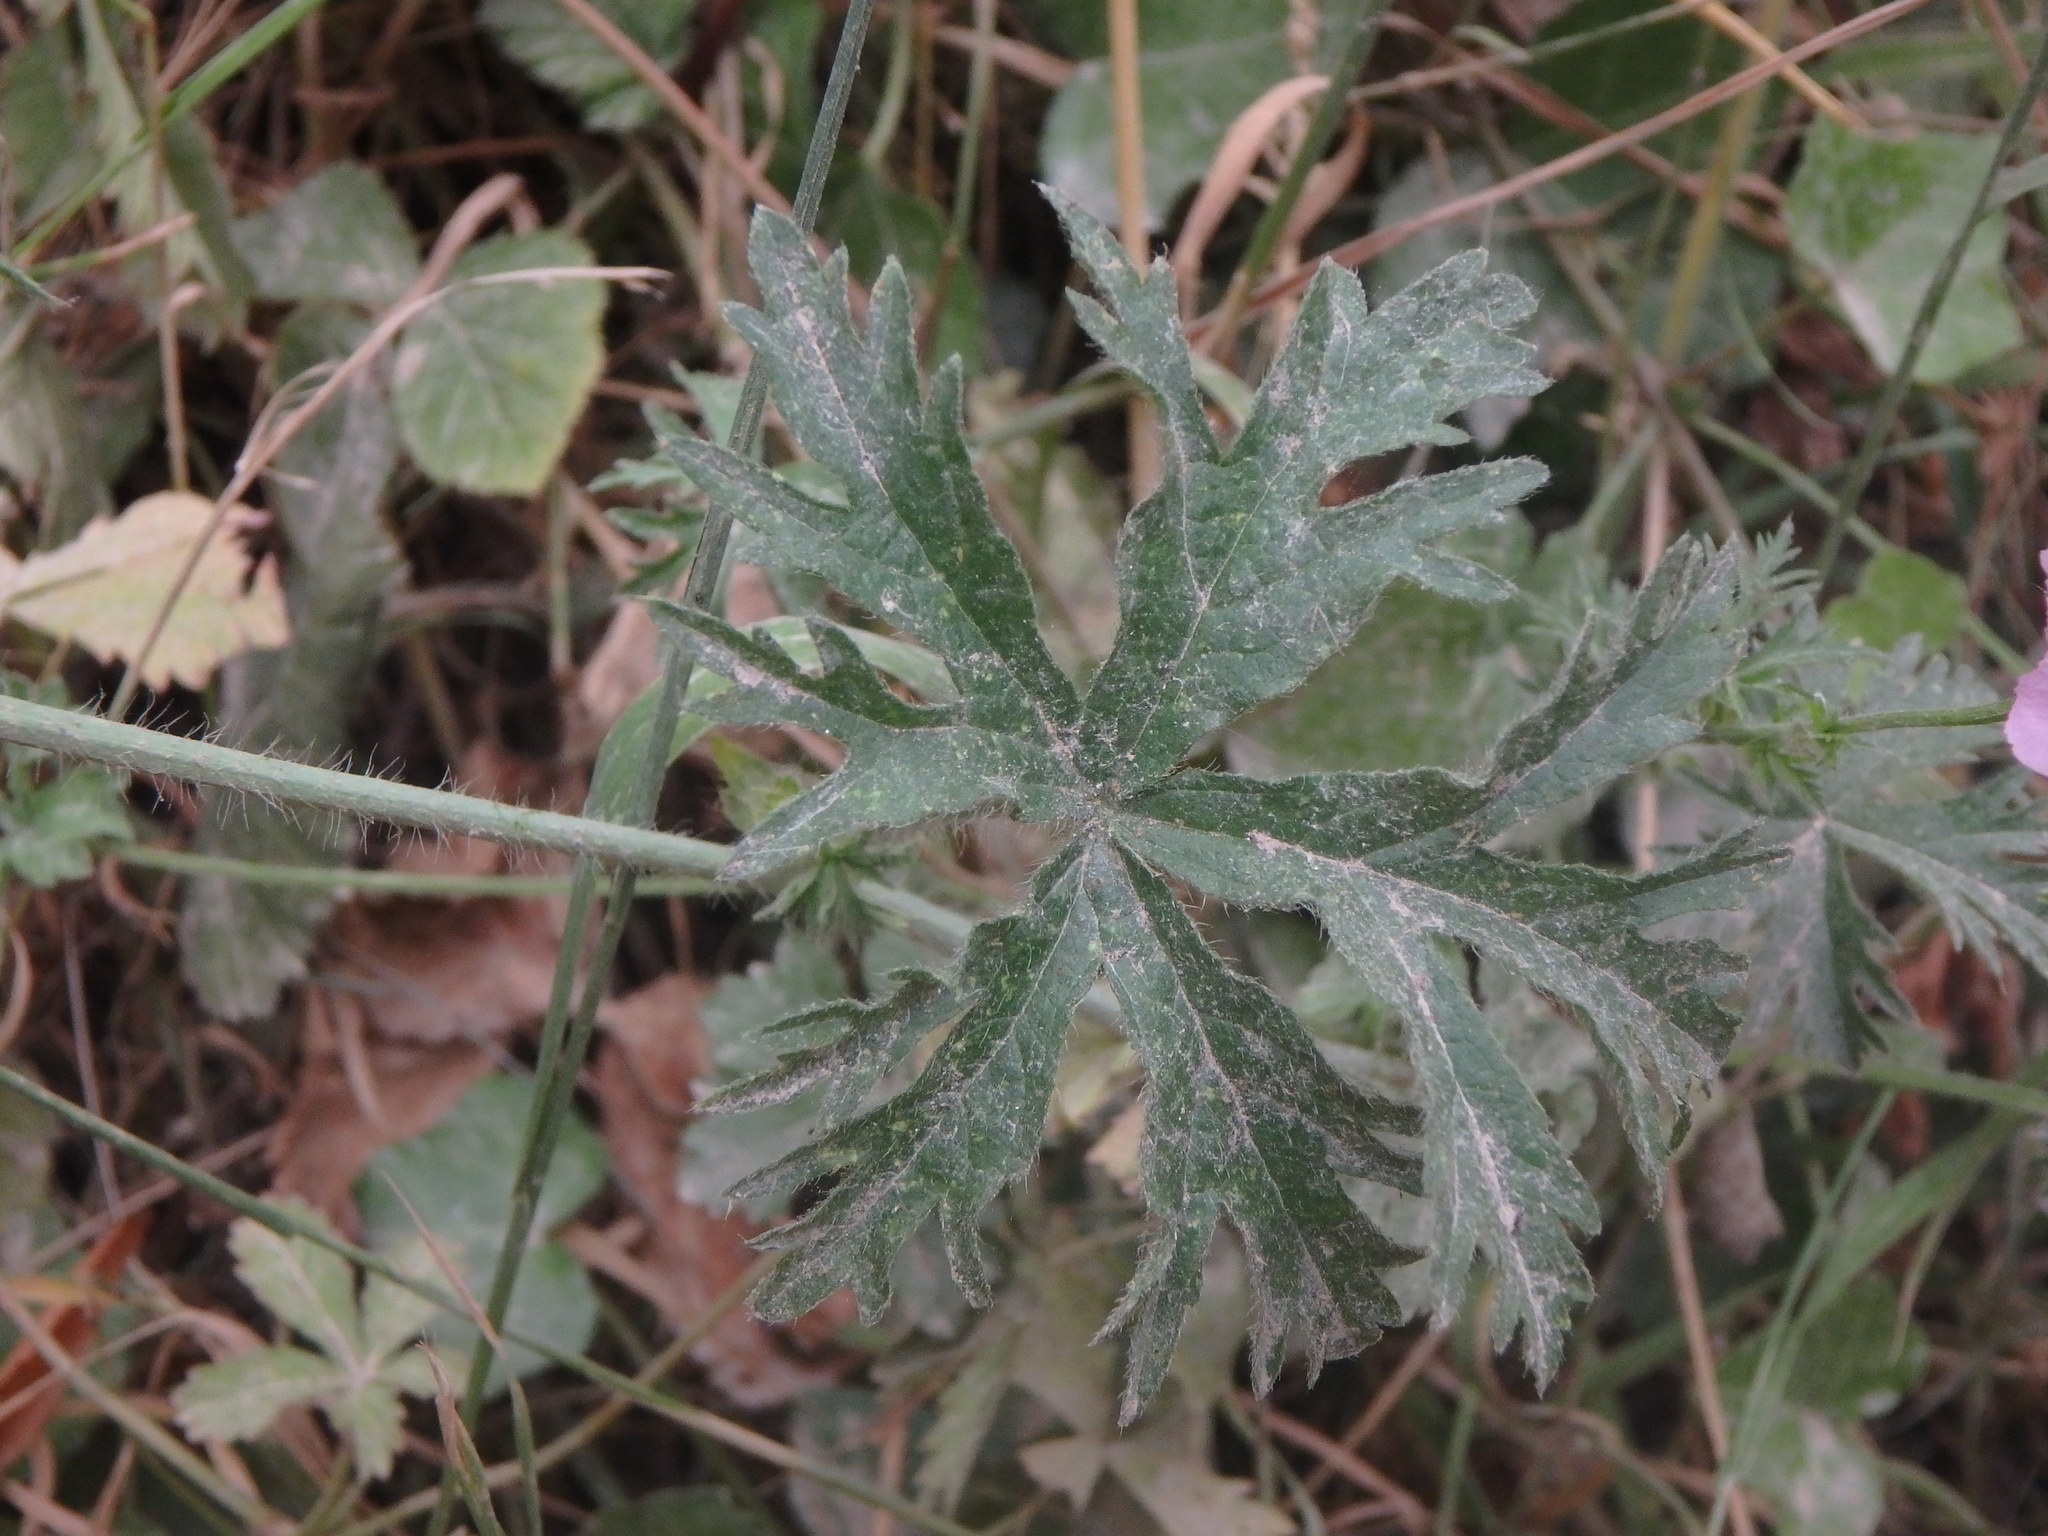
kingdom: Plantae
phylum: Tracheophyta
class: Magnoliopsida
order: Malvales
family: Malvaceae
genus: Malva
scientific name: Malva moschata
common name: Musk mallow
